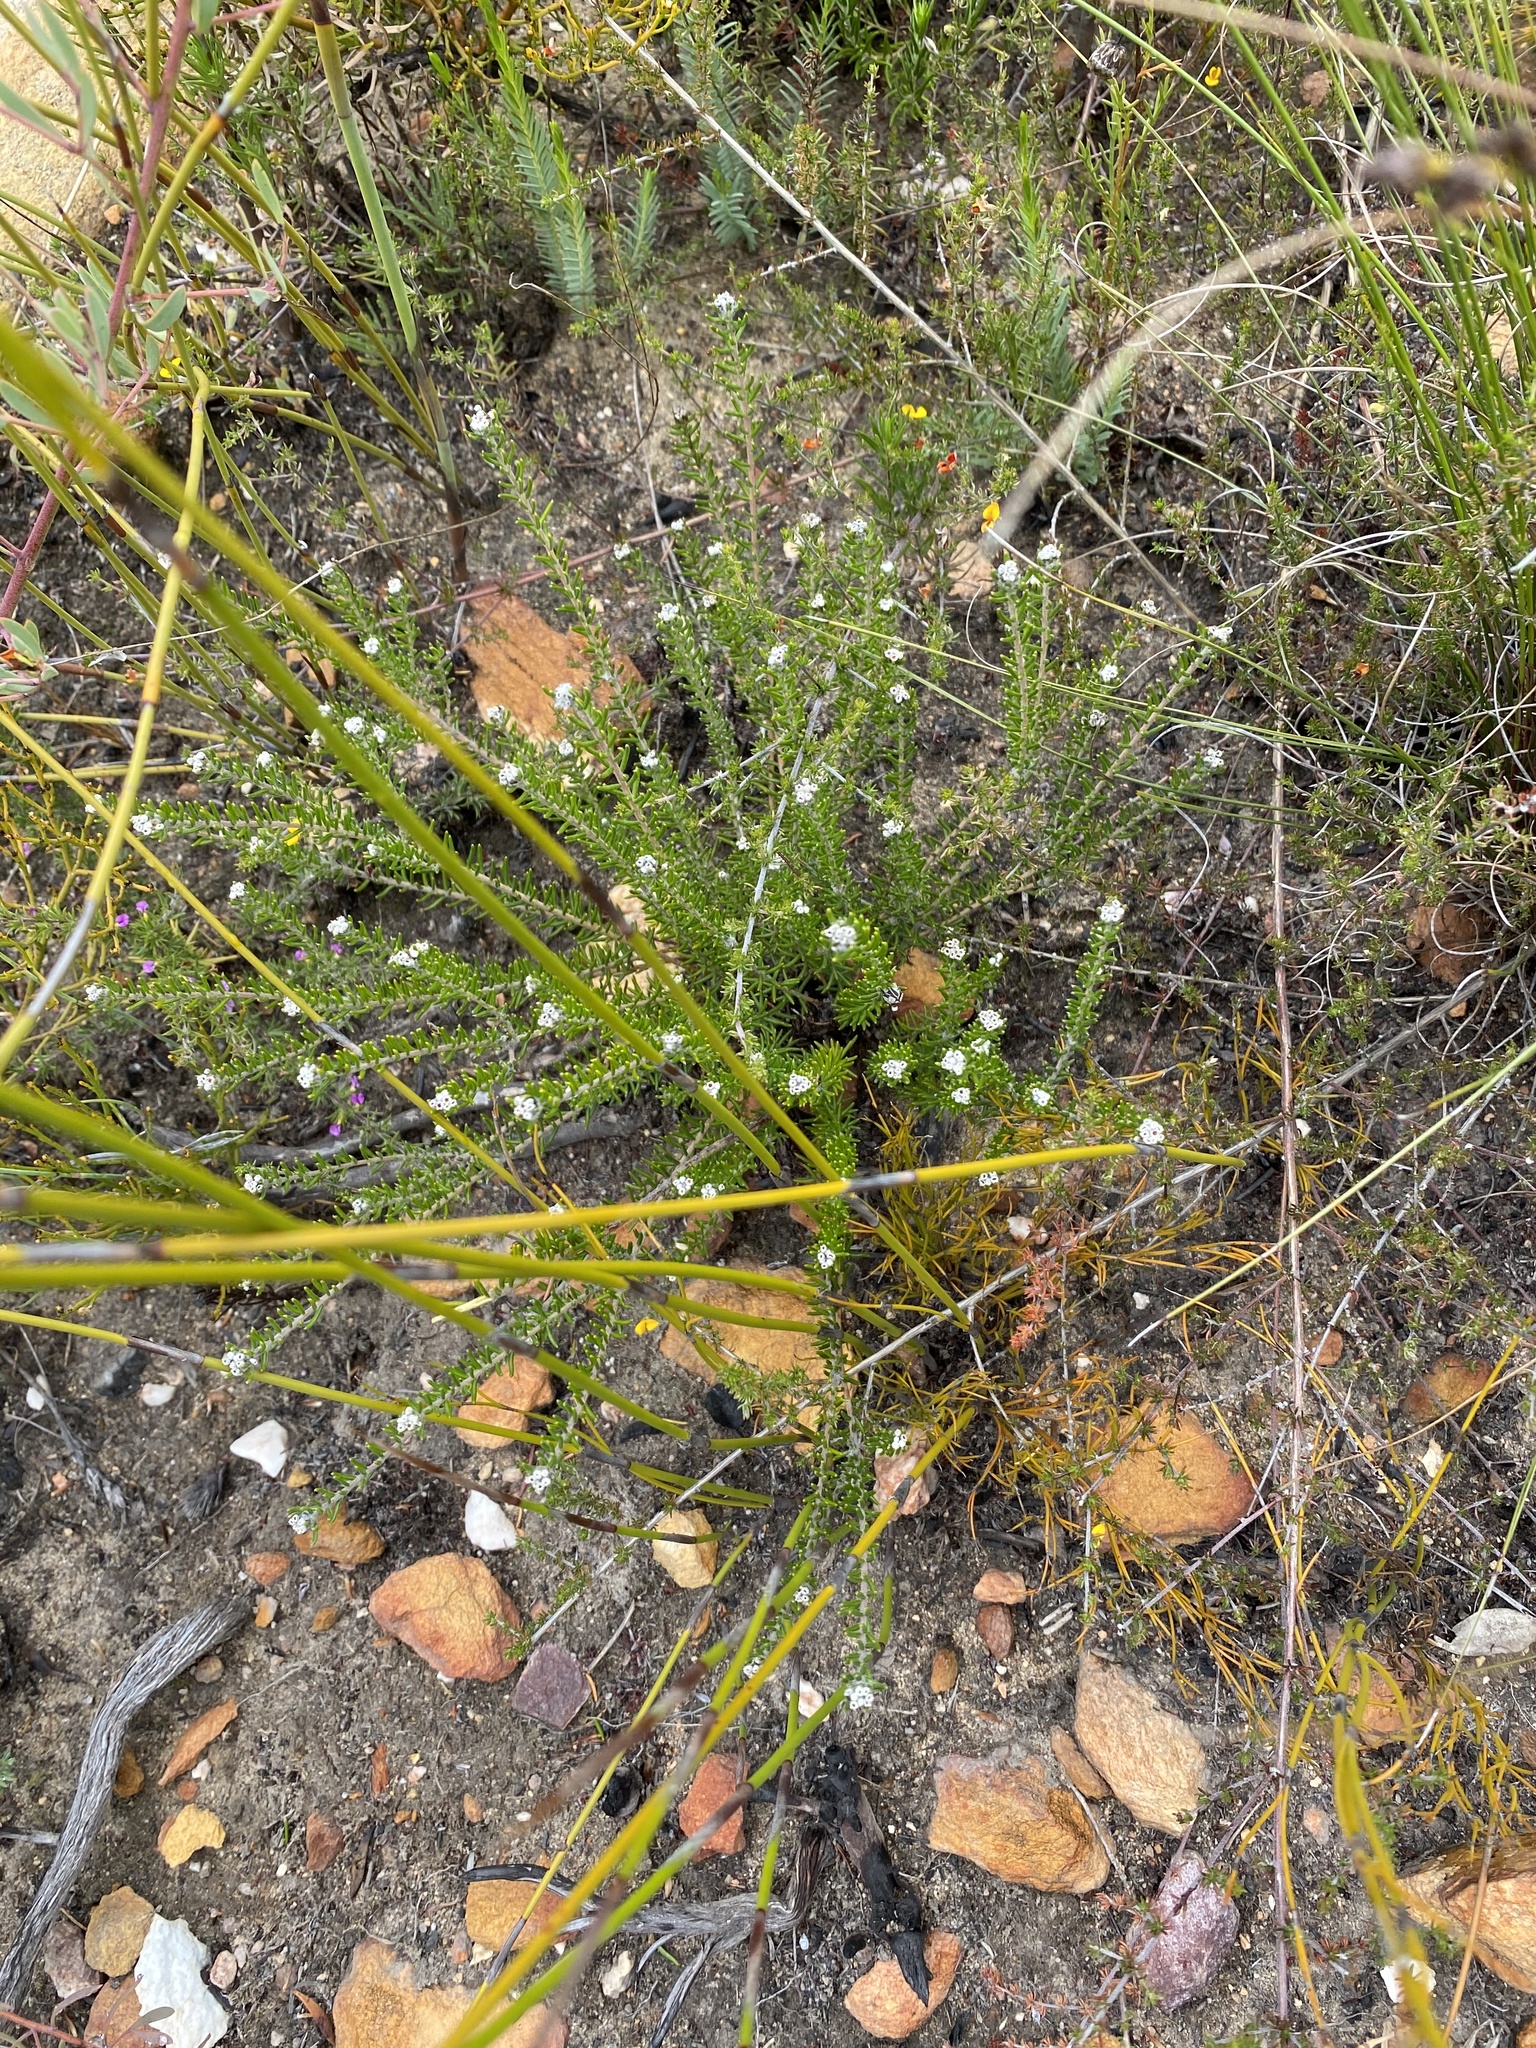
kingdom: Plantae
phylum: Tracheophyta
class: Magnoliopsida
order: Rosales
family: Rhamnaceae
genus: Phylica
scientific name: Phylica karroica
